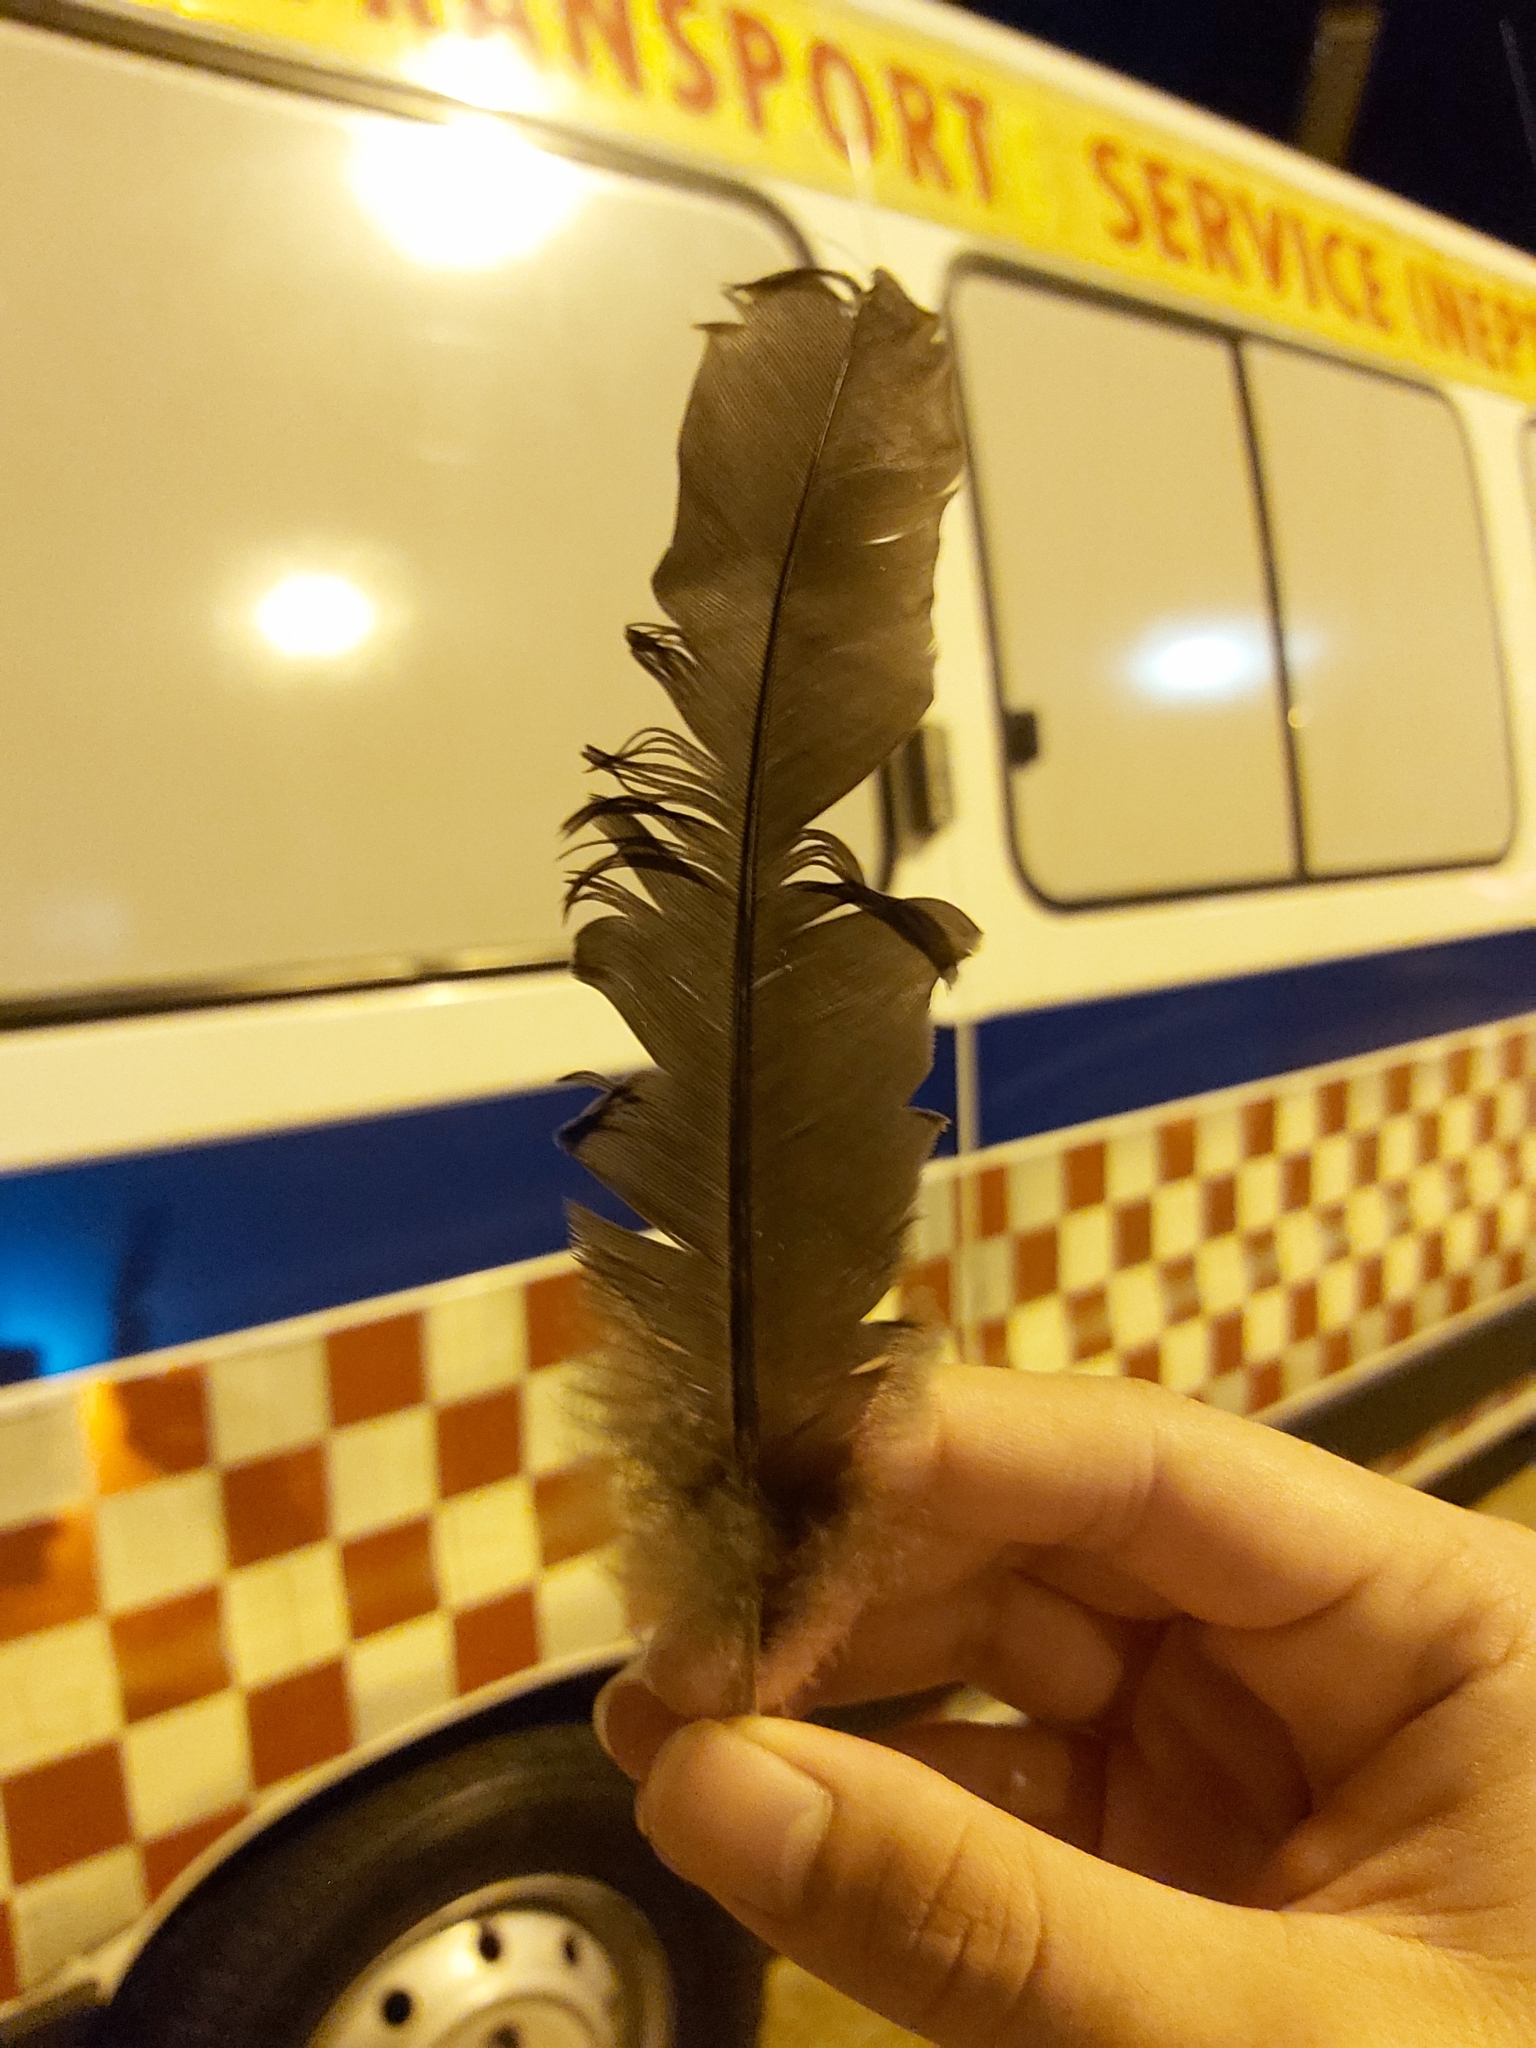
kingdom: Animalia
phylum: Chordata
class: Aves
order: Galliformes
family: Megapodiidae
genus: Alectura
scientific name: Alectura lathami
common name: Australian brushturkey
